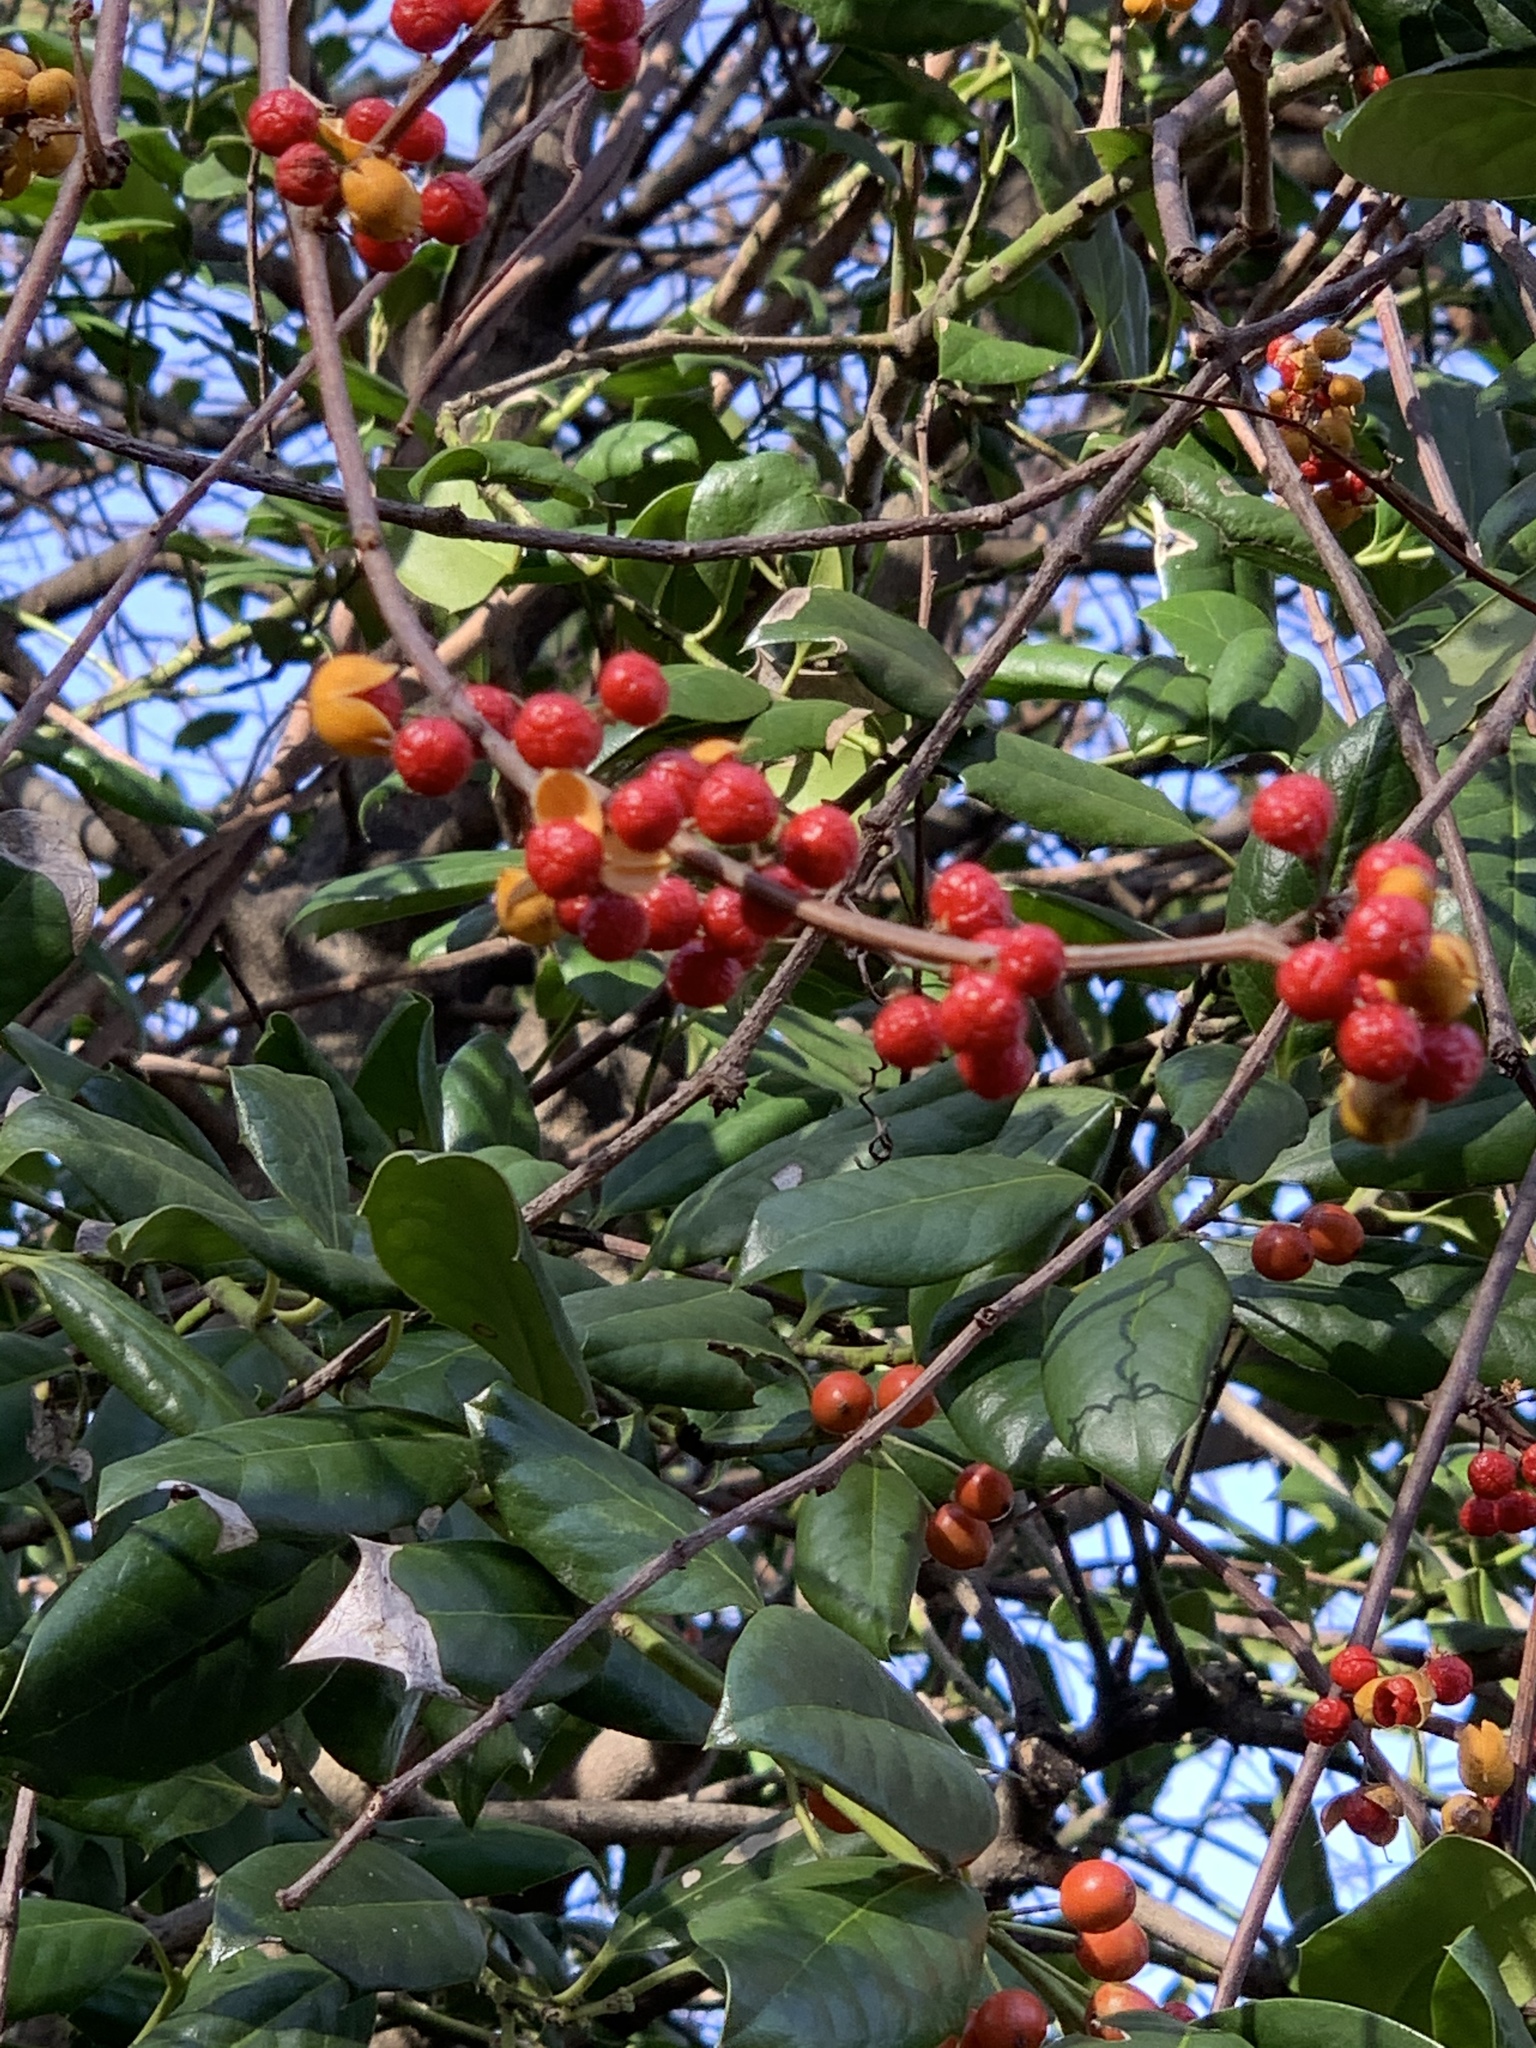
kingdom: Plantae
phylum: Tracheophyta
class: Magnoliopsida
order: Celastrales
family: Celastraceae
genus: Celastrus
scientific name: Celastrus orbiculatus
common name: Oriental bittersweet
